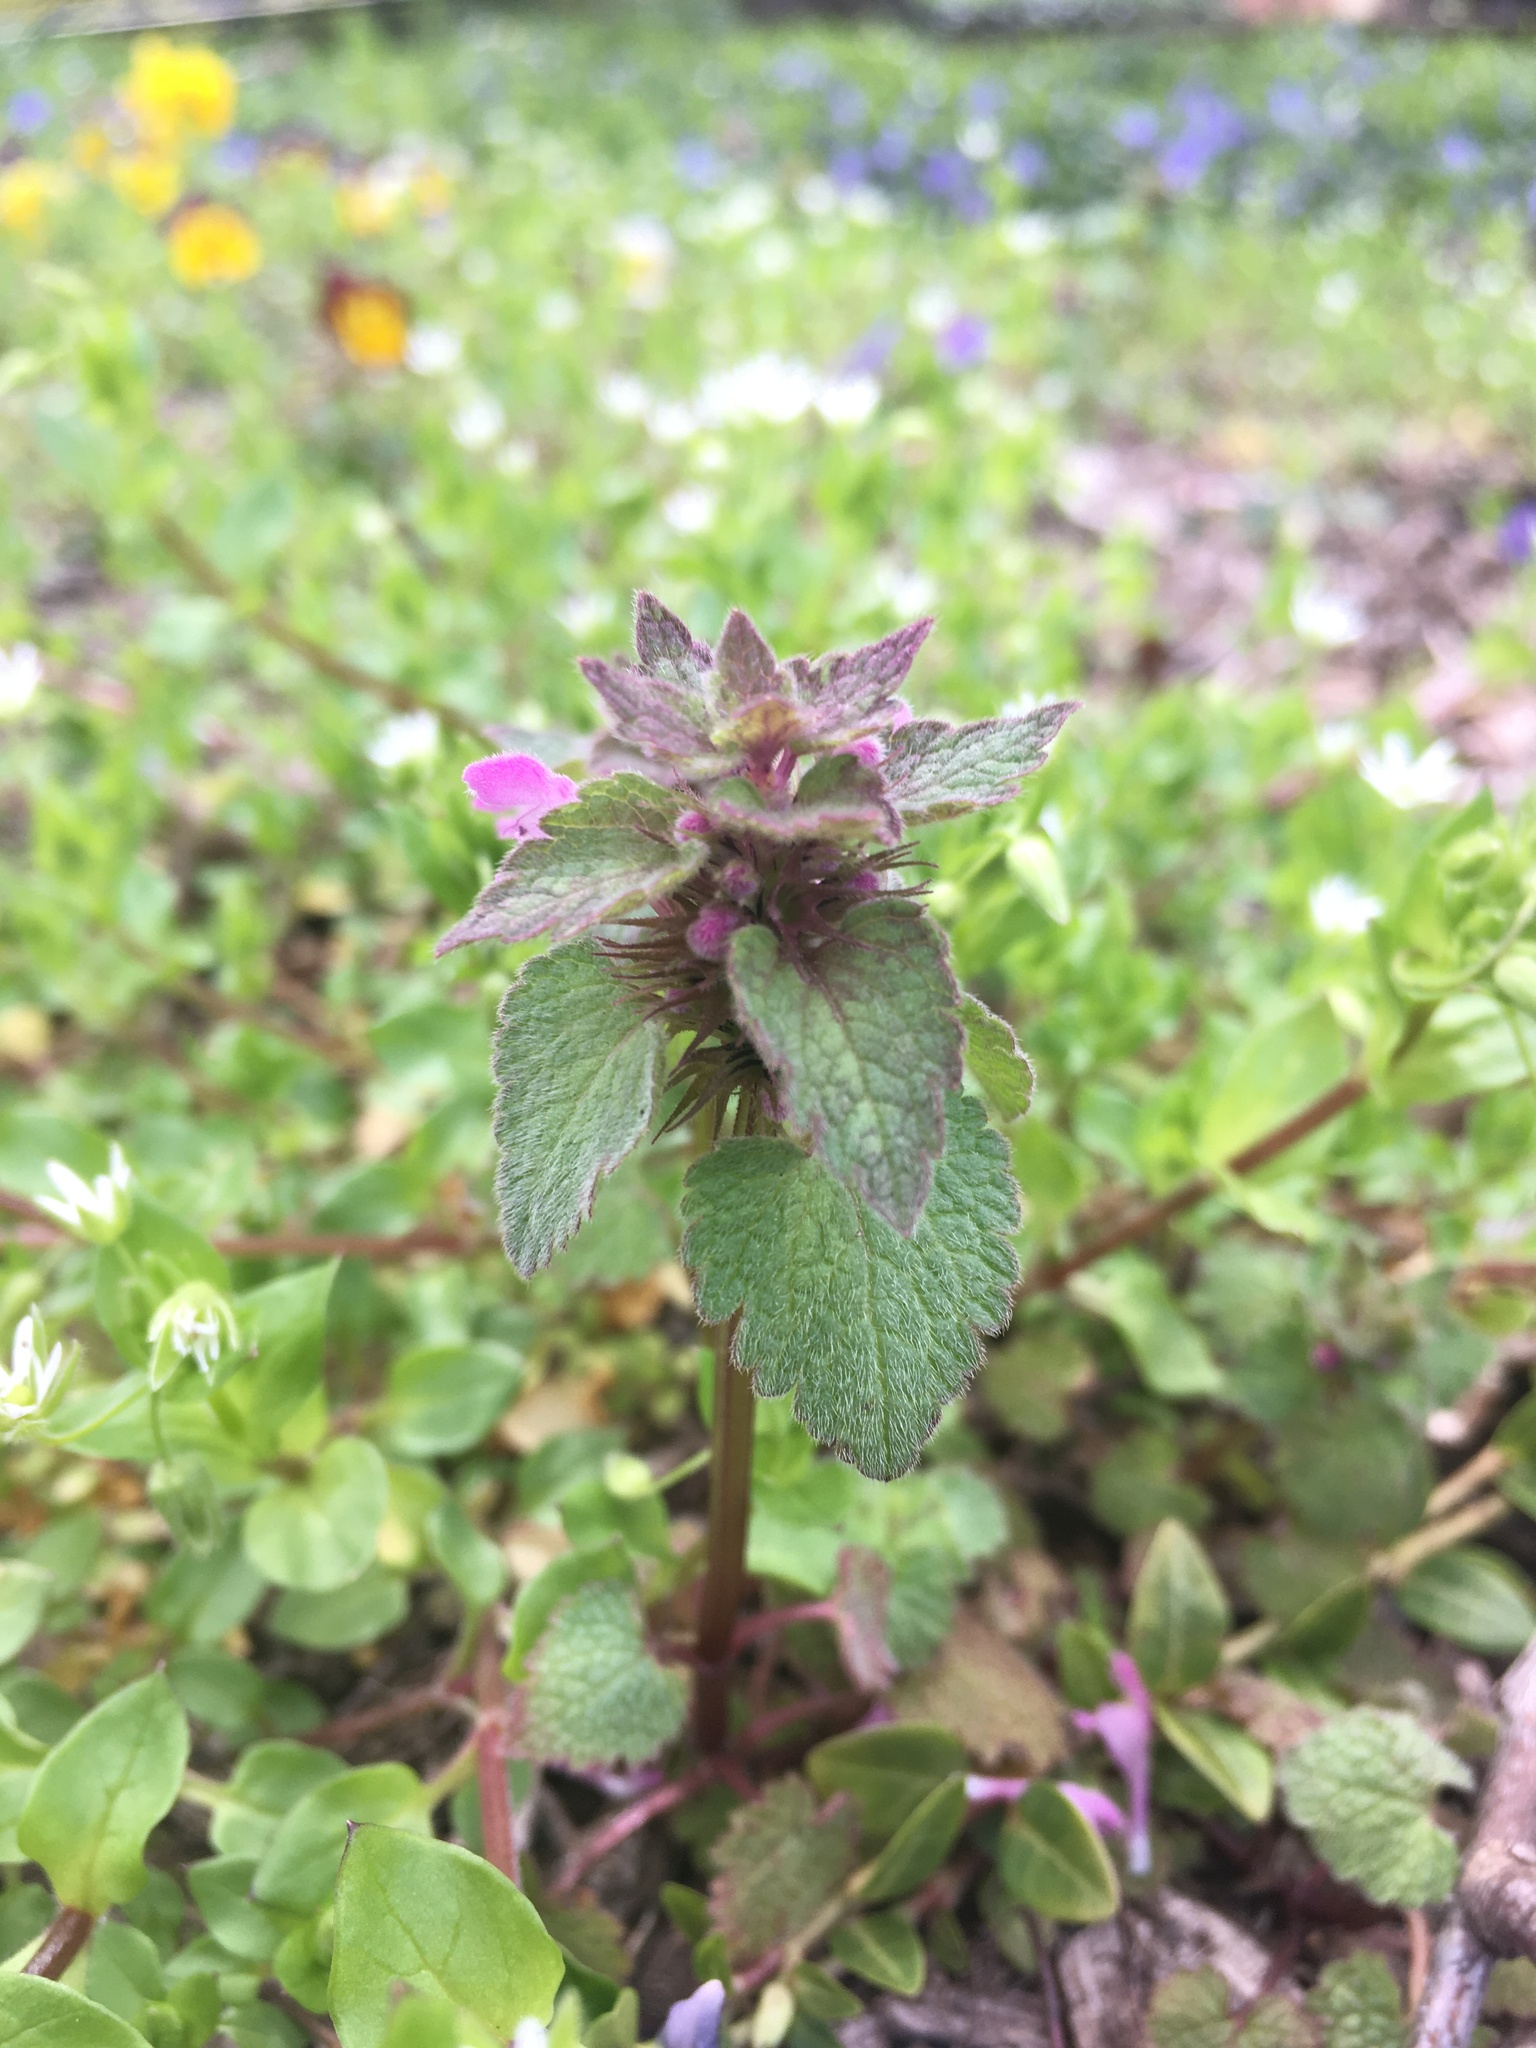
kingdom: Plantae
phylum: Tracheophyta
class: Magnoliopsida
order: Lamiales
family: Lamiaceae
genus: Lamium
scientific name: Lamium purpureum
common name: Red dead-nettle
